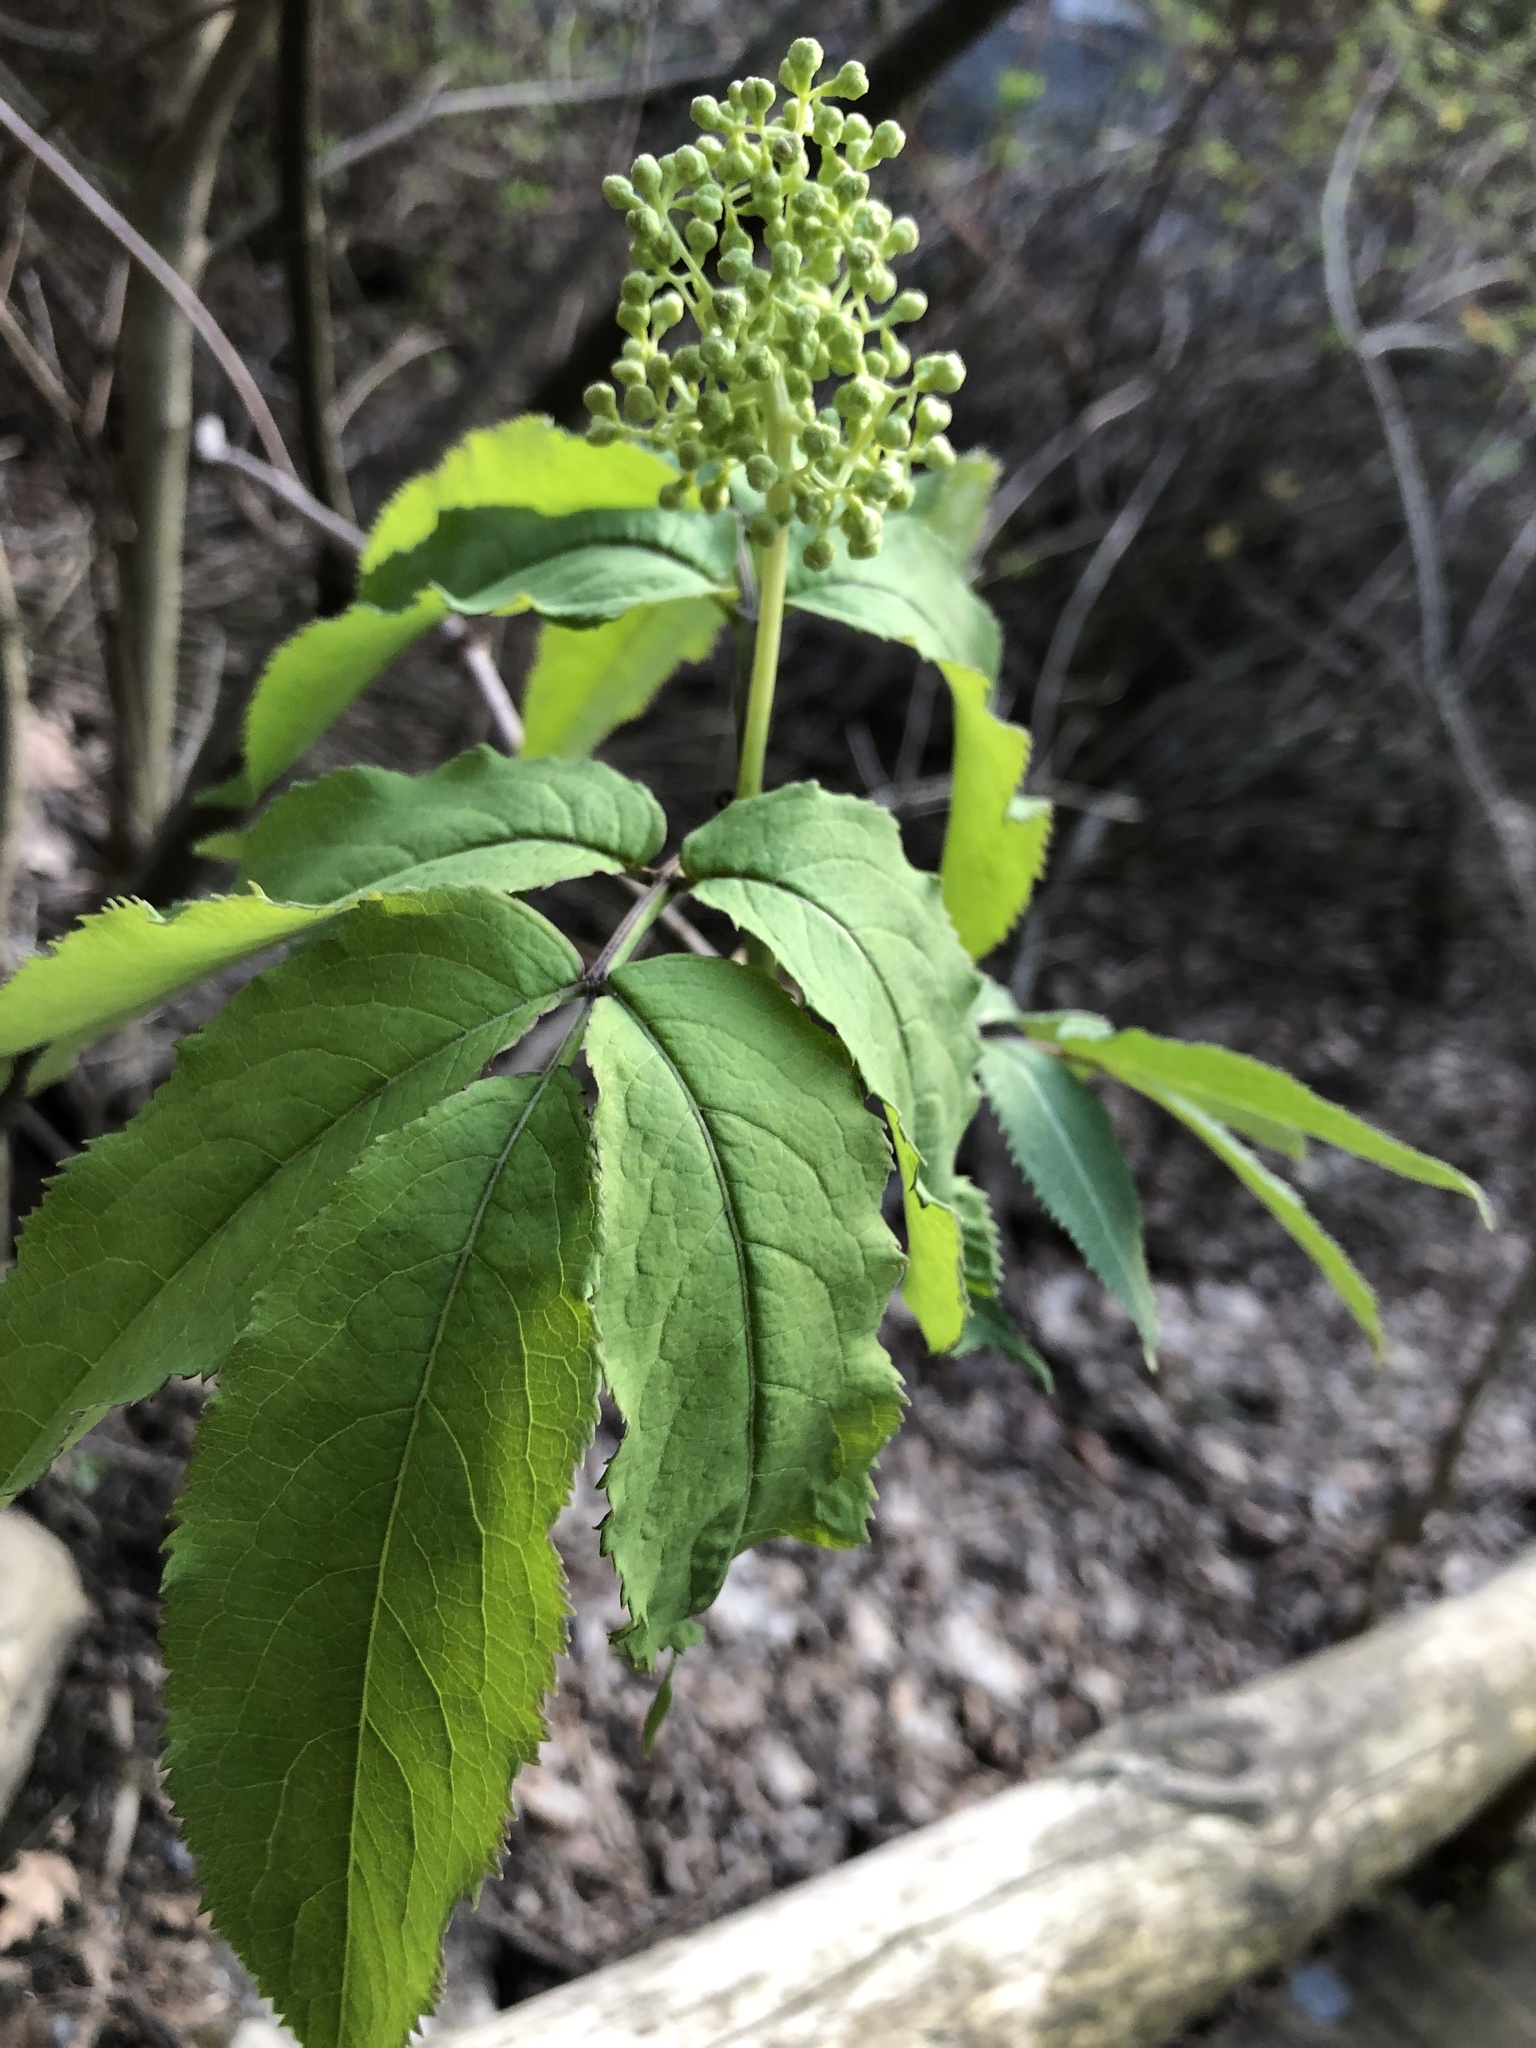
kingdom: Plantae
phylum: Tracheophyta
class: Magnoliopsida
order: Dipsacales
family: Viburnaceae
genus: Sambucus
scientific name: Sambucus racemosa
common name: Red-berried elder
